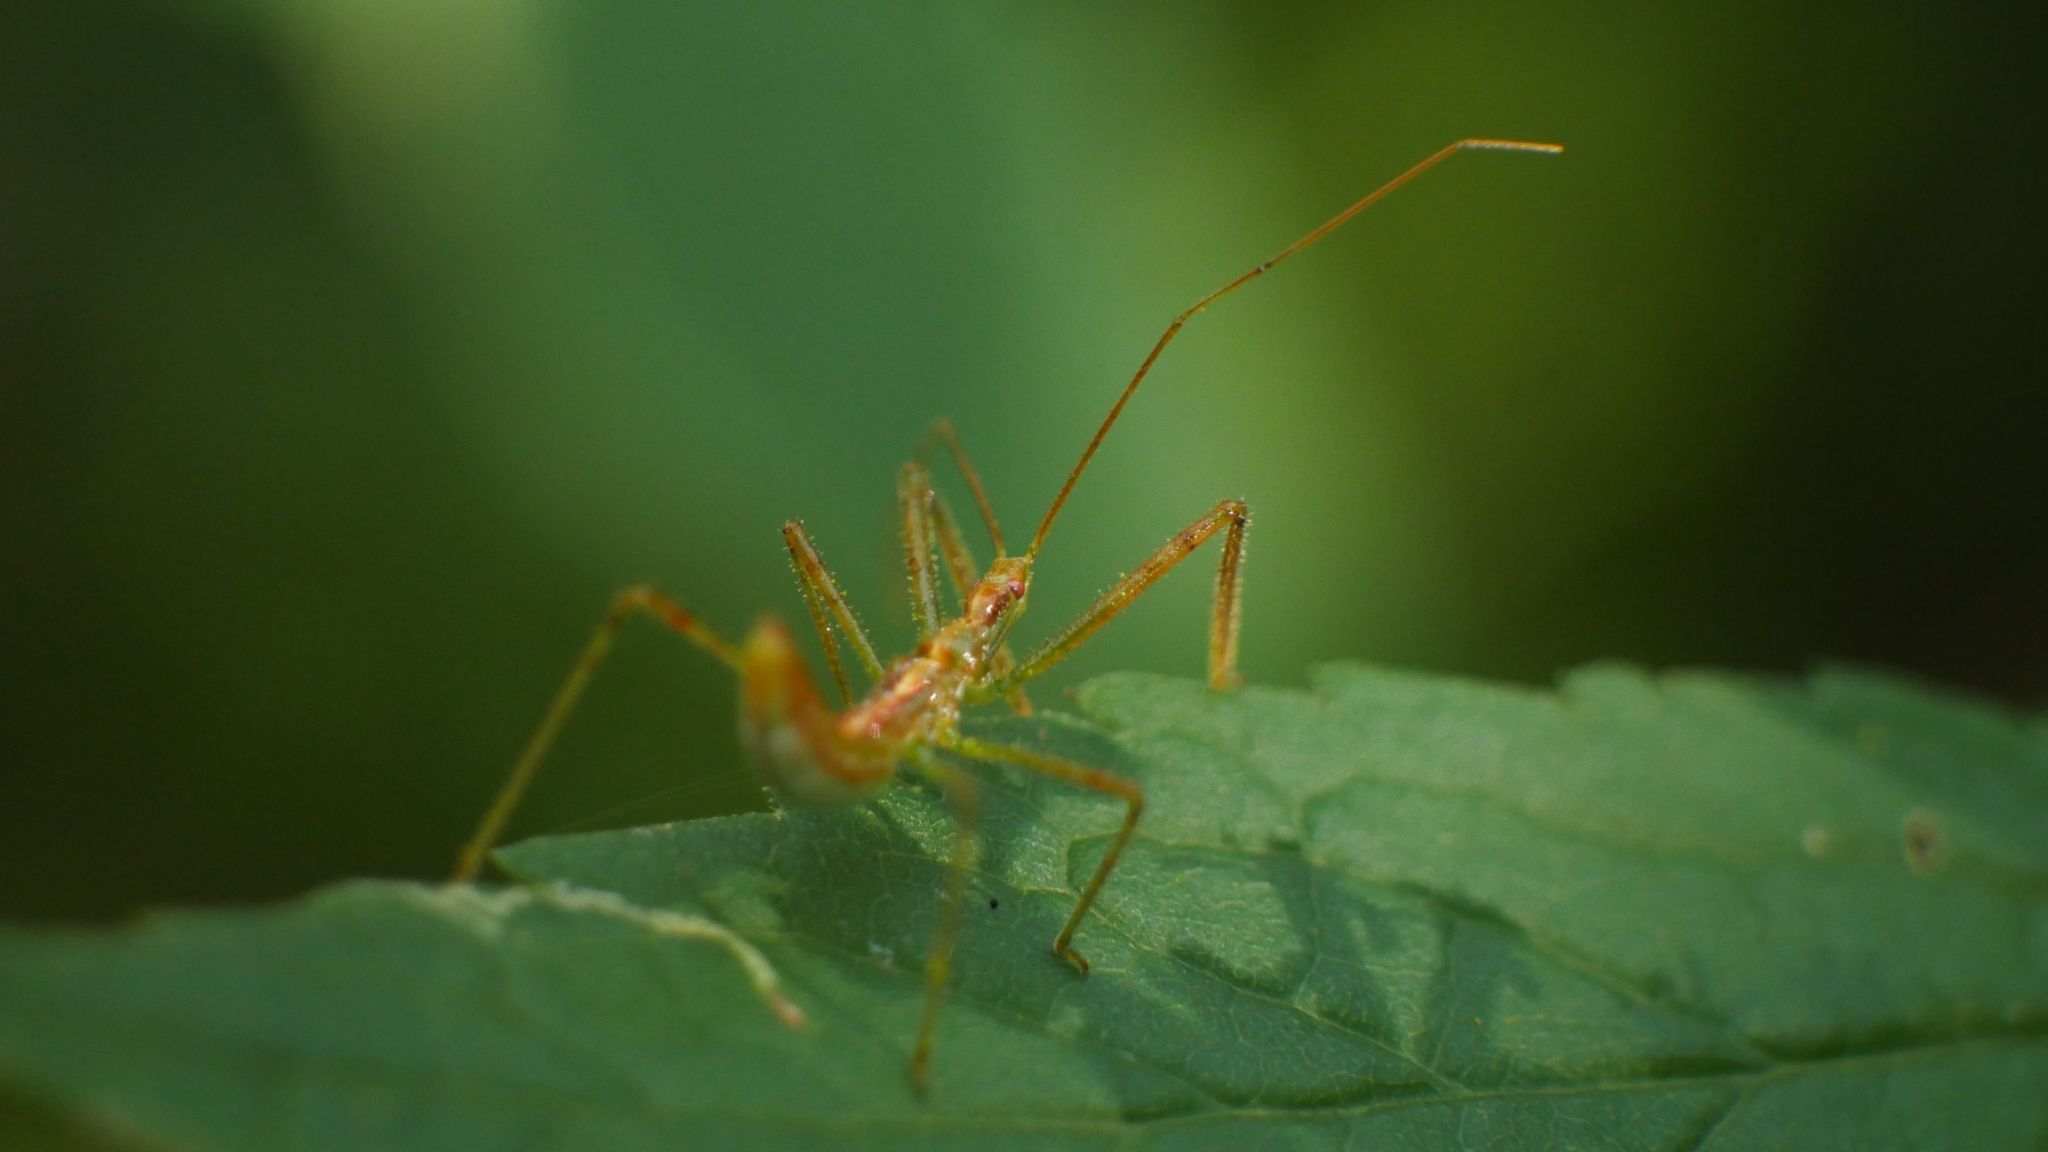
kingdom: Animalia
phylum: Arthropoda
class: Insecta
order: Hemiptera
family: Reduviidae
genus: Zelus
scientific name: Zelus luridus
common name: Pale green assassin bug
